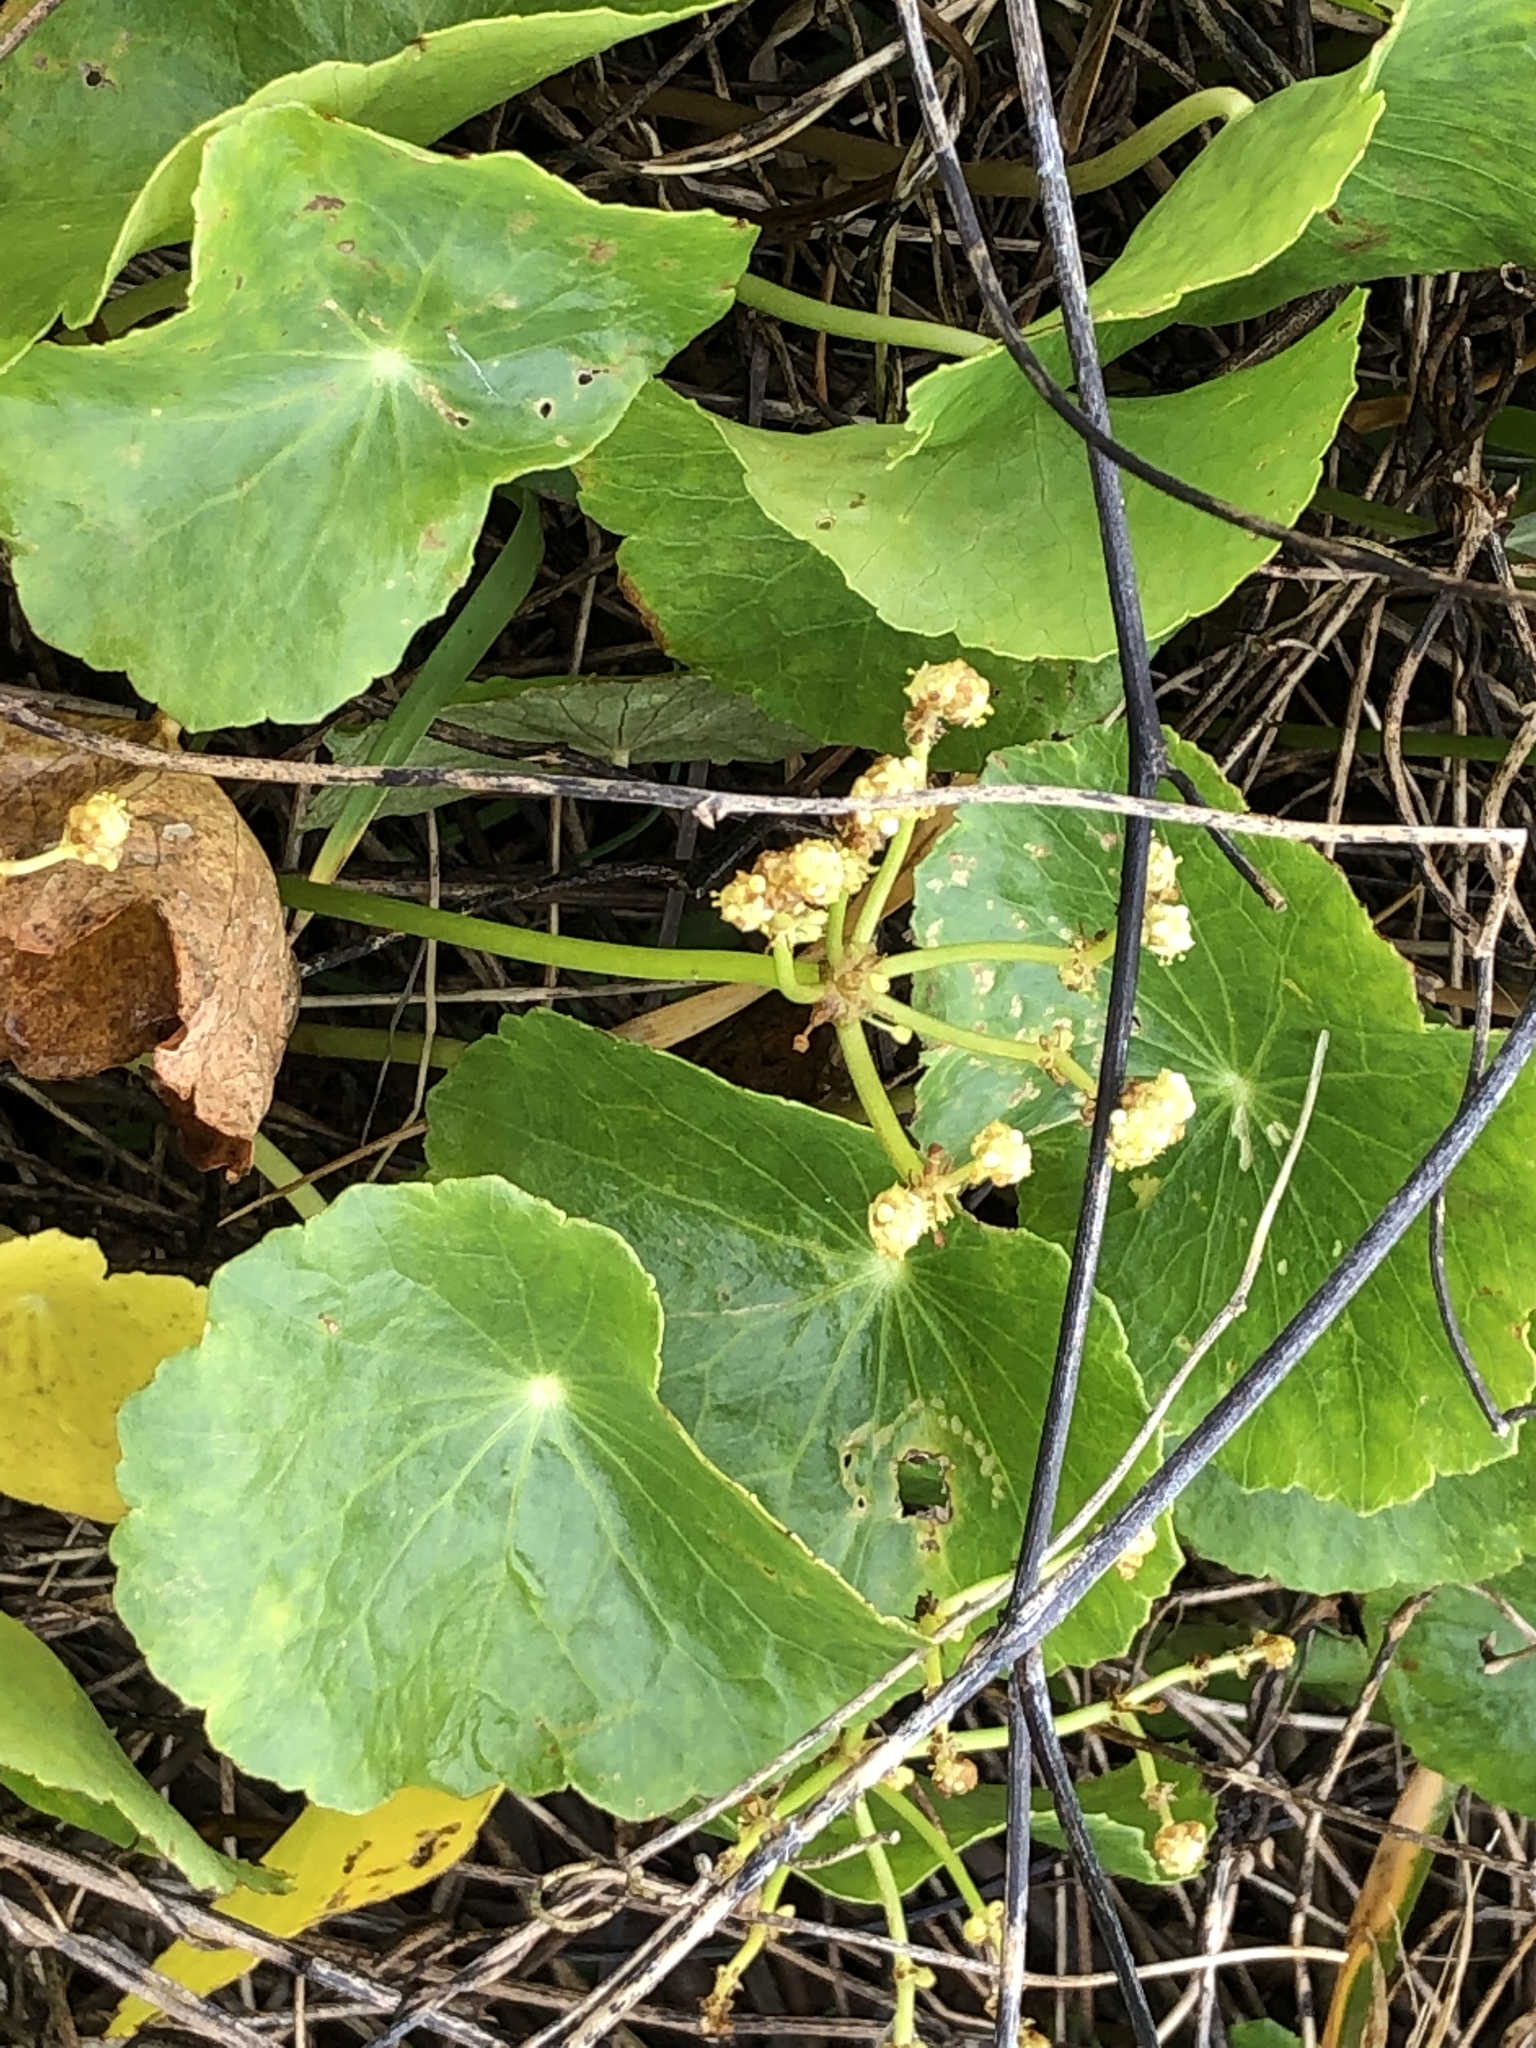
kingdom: Plantae
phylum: Tracheophyta
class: Magnoliopsida
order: Apiales
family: Araliaceae
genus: Hydrocotyle
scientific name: Hydrocotyle bonariensis
